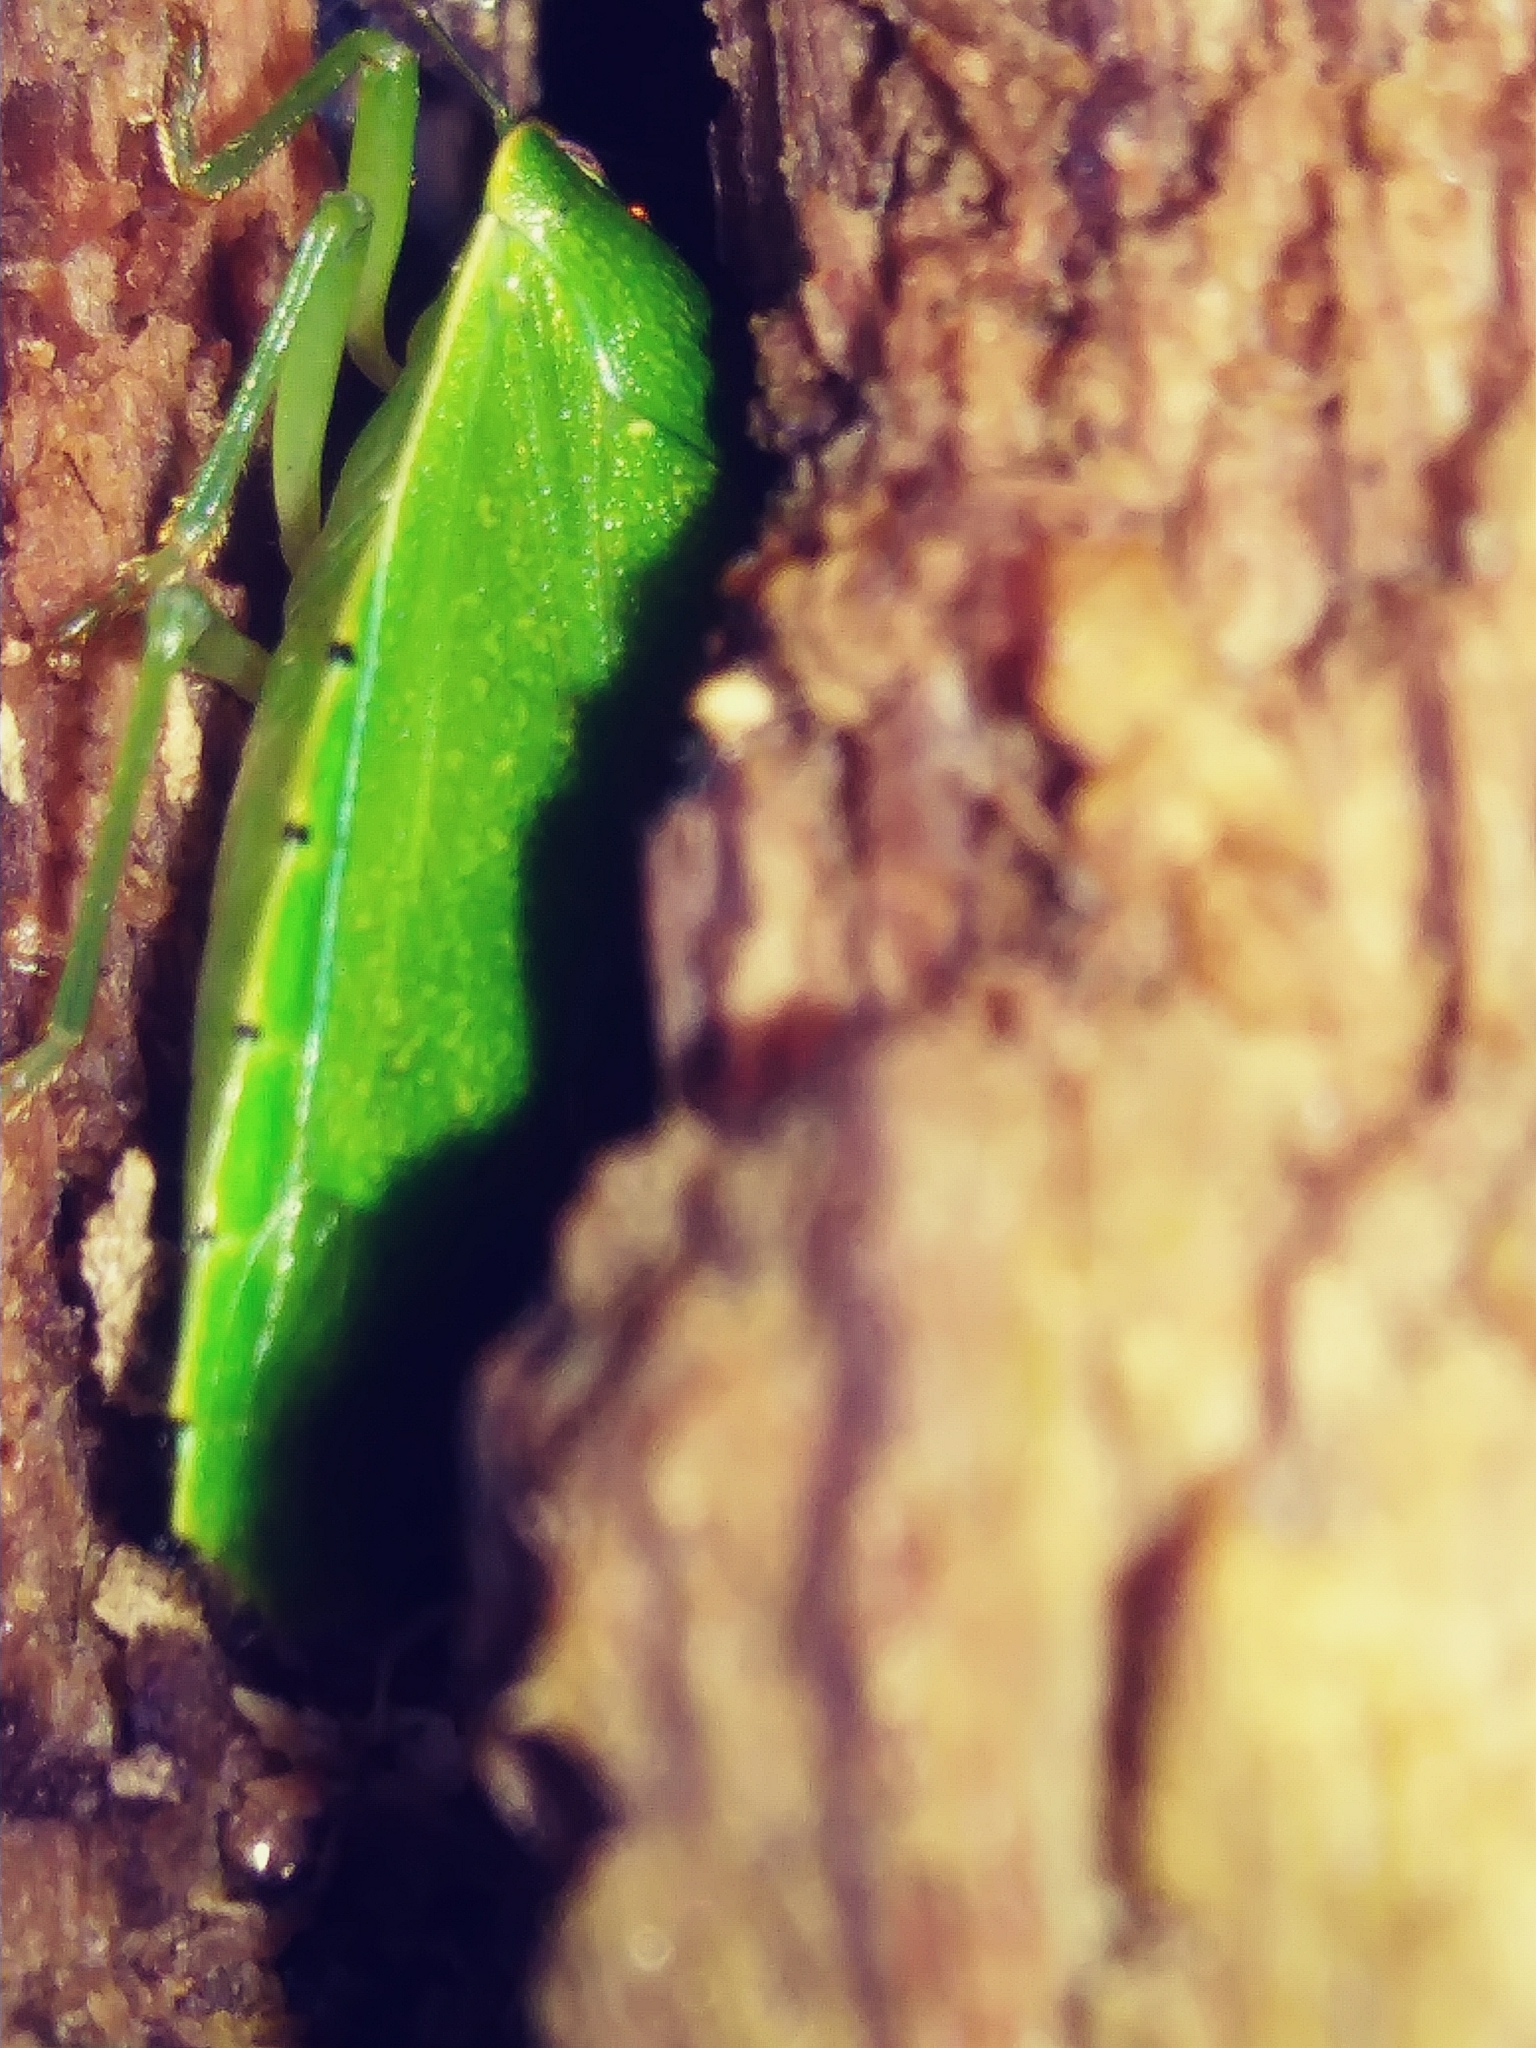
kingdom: Animalia
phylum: Arthropoda
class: Insecta
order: Hemiptera
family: Pentatomidae
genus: Chinavia
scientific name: Chinavia hilaris
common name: Green stink bug
